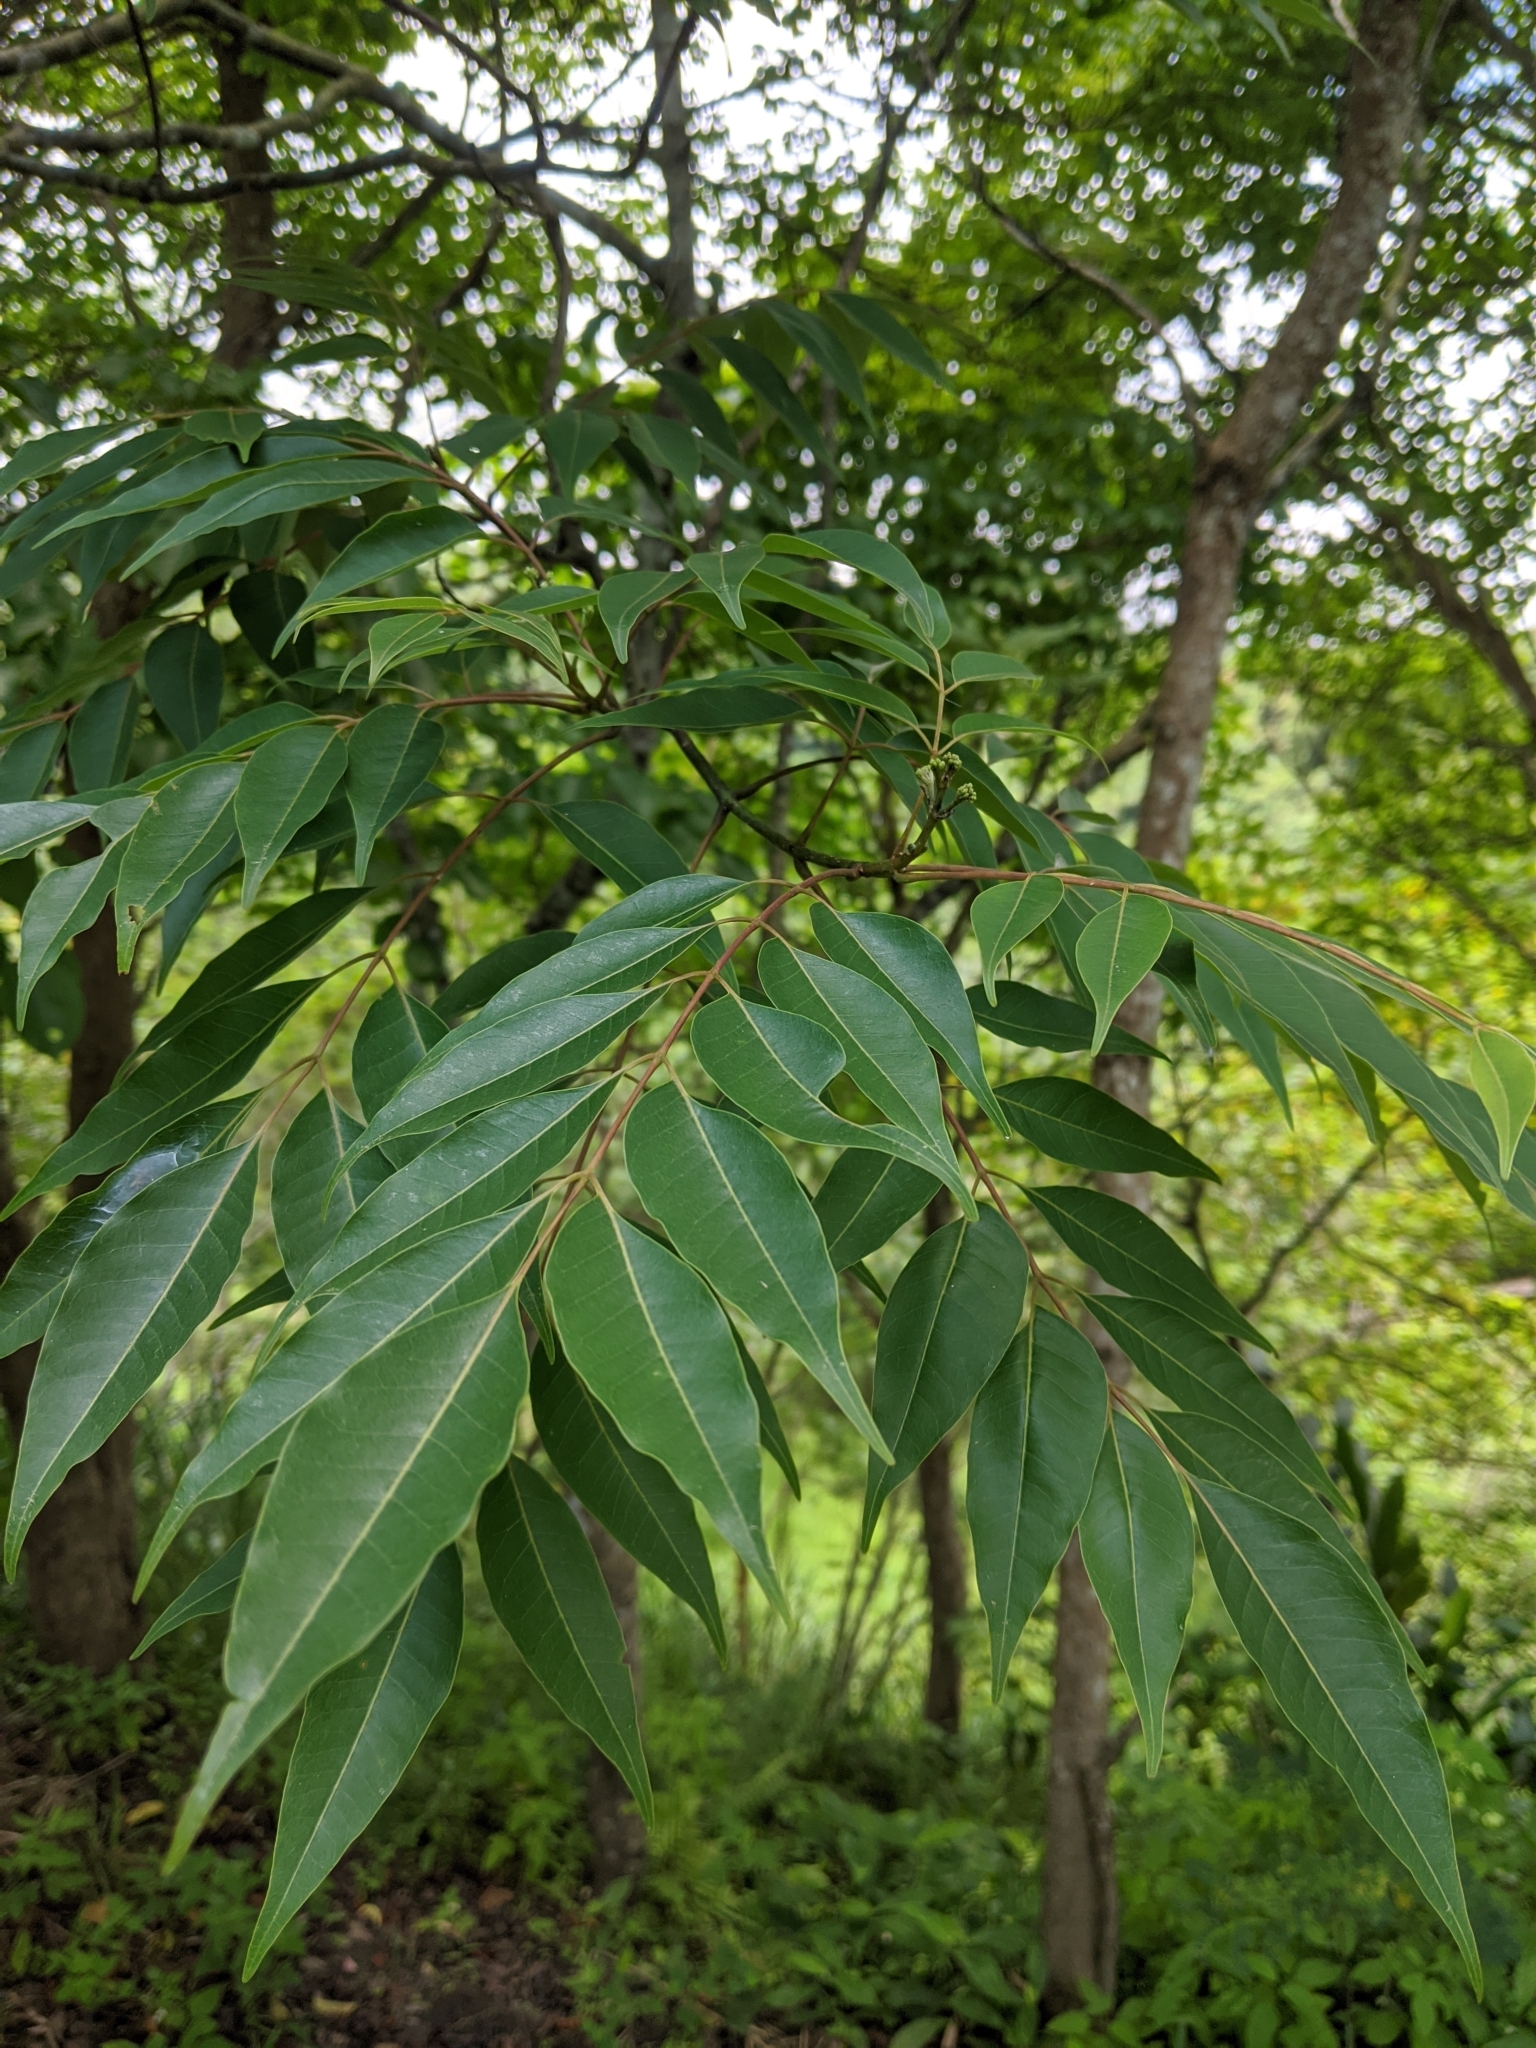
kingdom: Plantae
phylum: Tracheophyta
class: Magnoliopsida
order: Sapindales
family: Rutaceae
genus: Tetradium
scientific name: Tetradium glabrifolium
